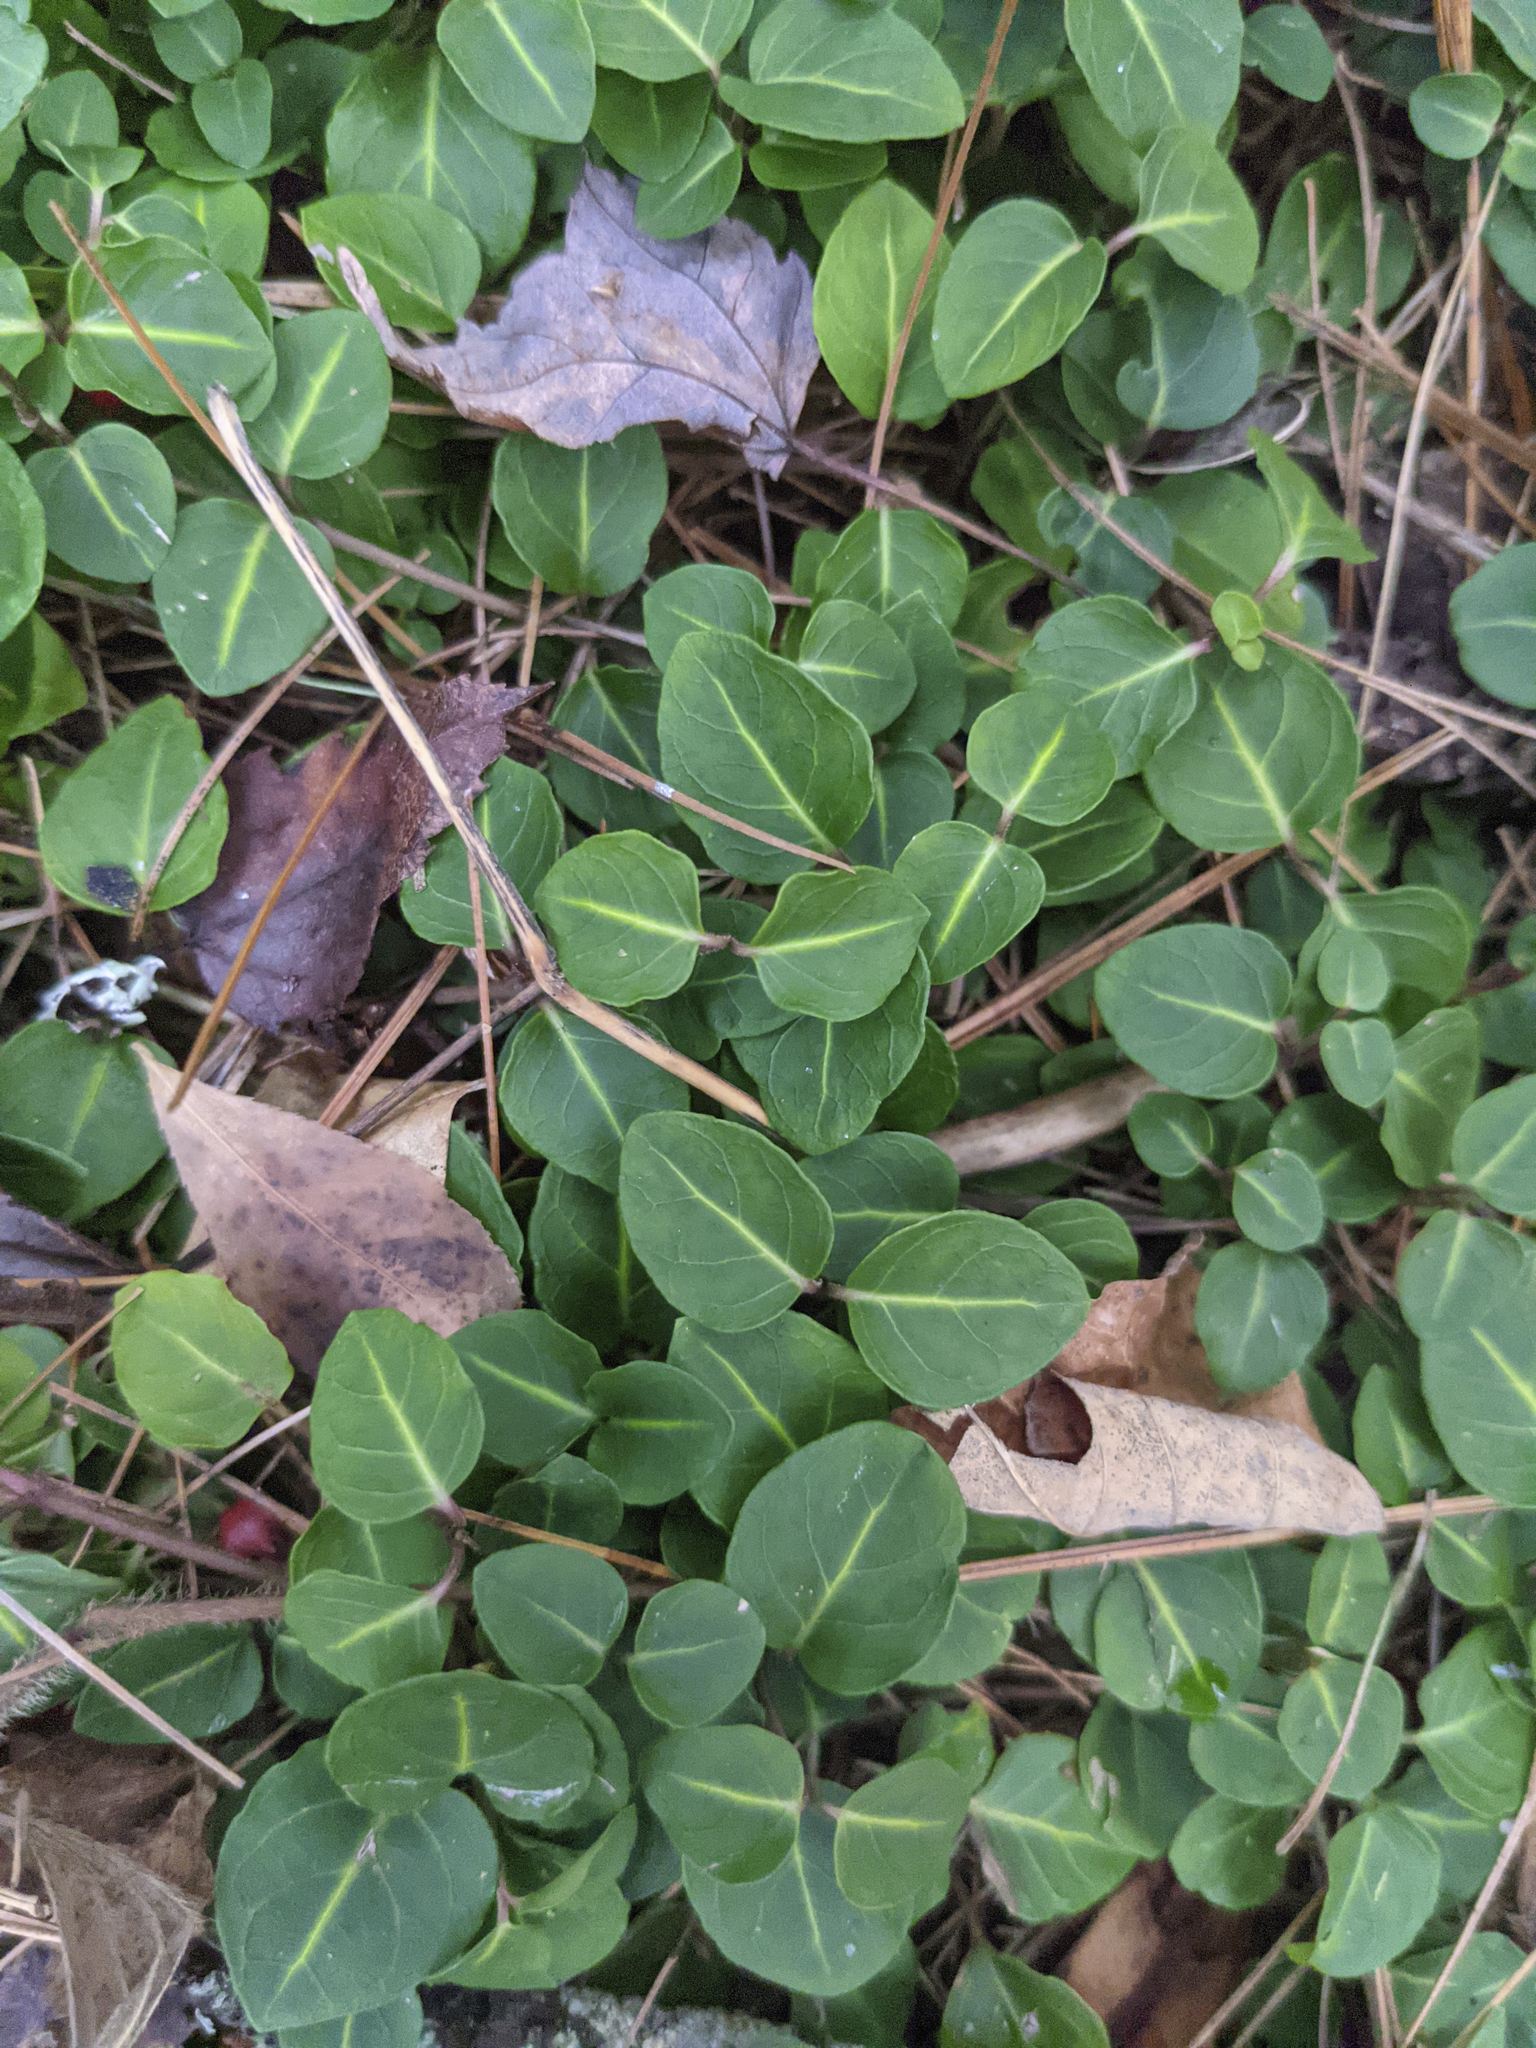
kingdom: Plantae
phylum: Tracheophyta
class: Magnoliopsida
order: Gentianales
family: Rubiaceae
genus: Mitchella
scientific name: Mitchella repens
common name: Partridge-berry
